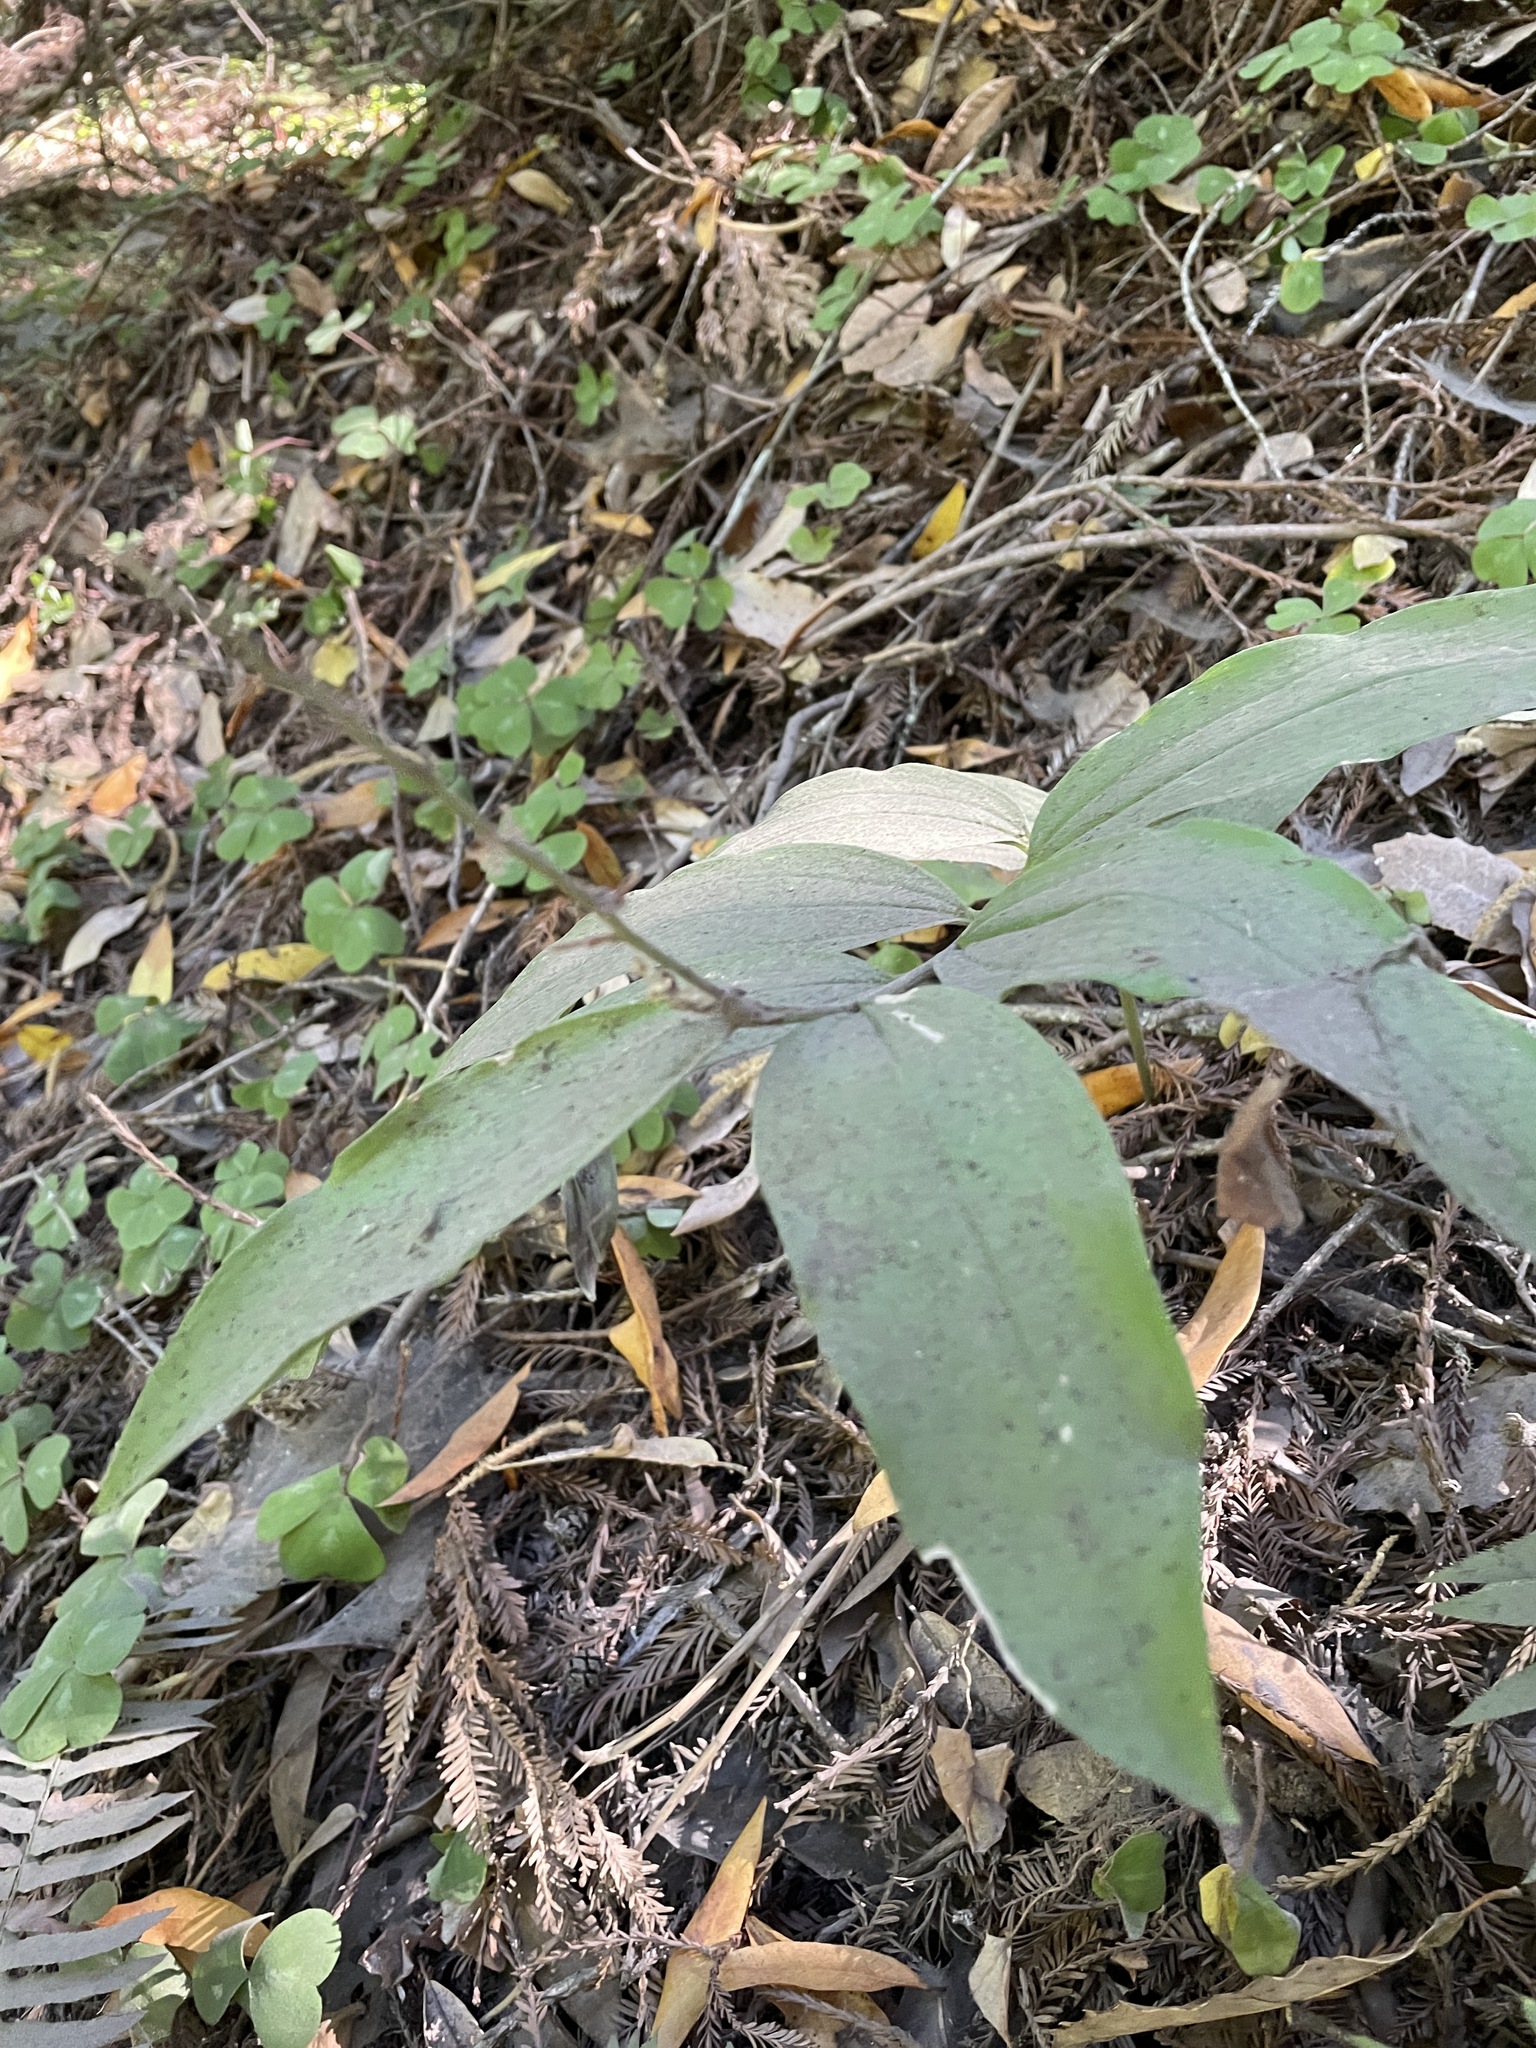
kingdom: Plantae
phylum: Tracheophyta
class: Liliopsida
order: Asparagales
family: Asparagaceae
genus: Maianthemum
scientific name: Maianthemum racemosum
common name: False spikenard
